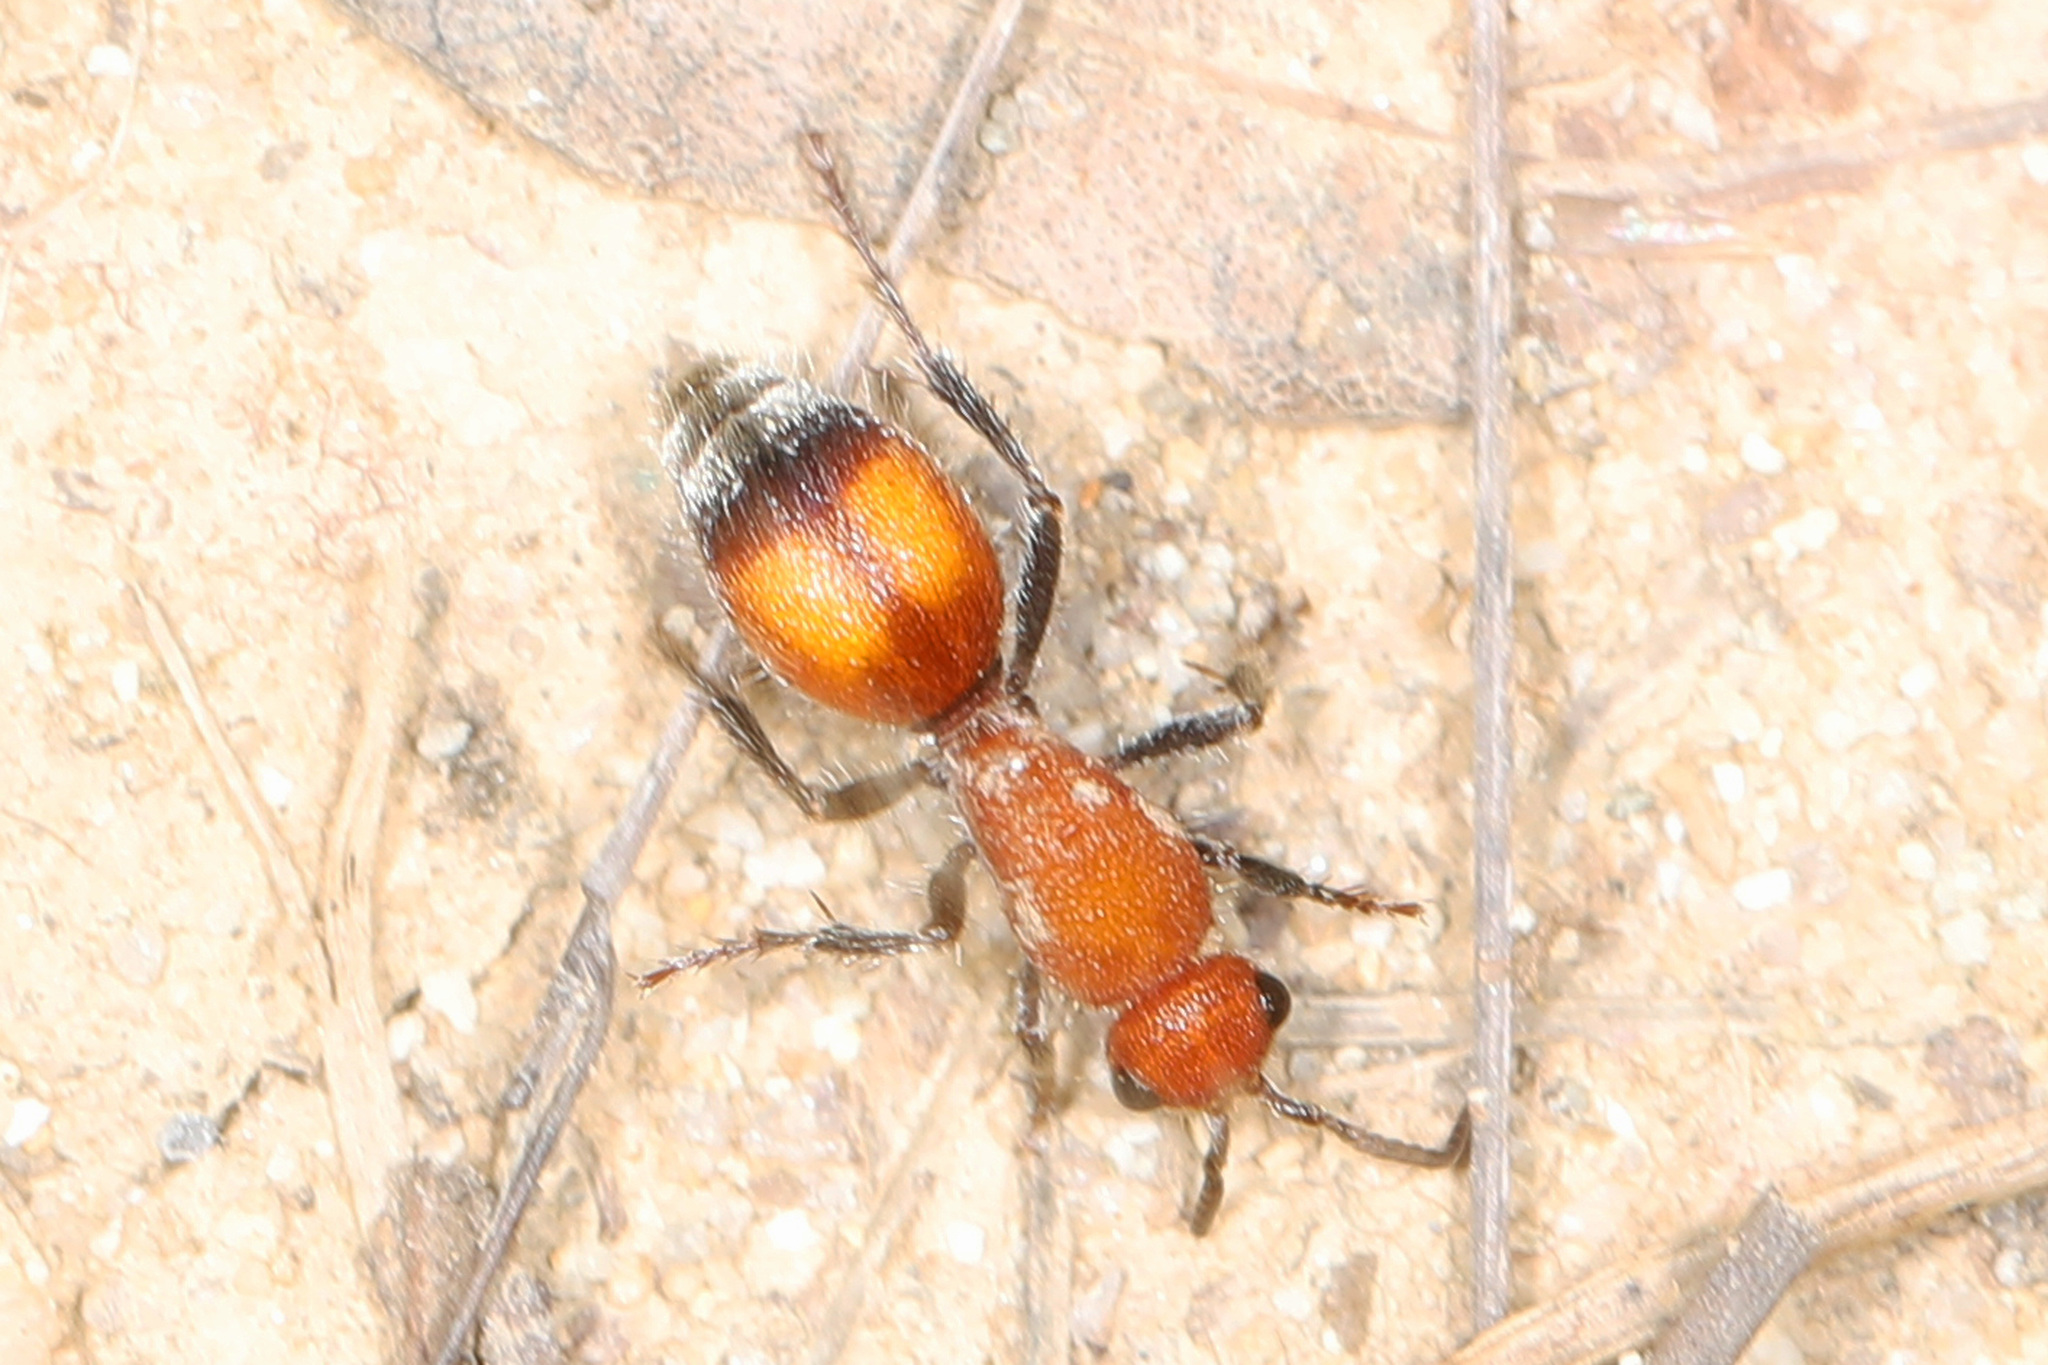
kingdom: Animalia
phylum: Arthropoda
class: Insecta
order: Hymenoptera
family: Mutillidae
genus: Dasymutilla
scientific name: Dasymutilla
